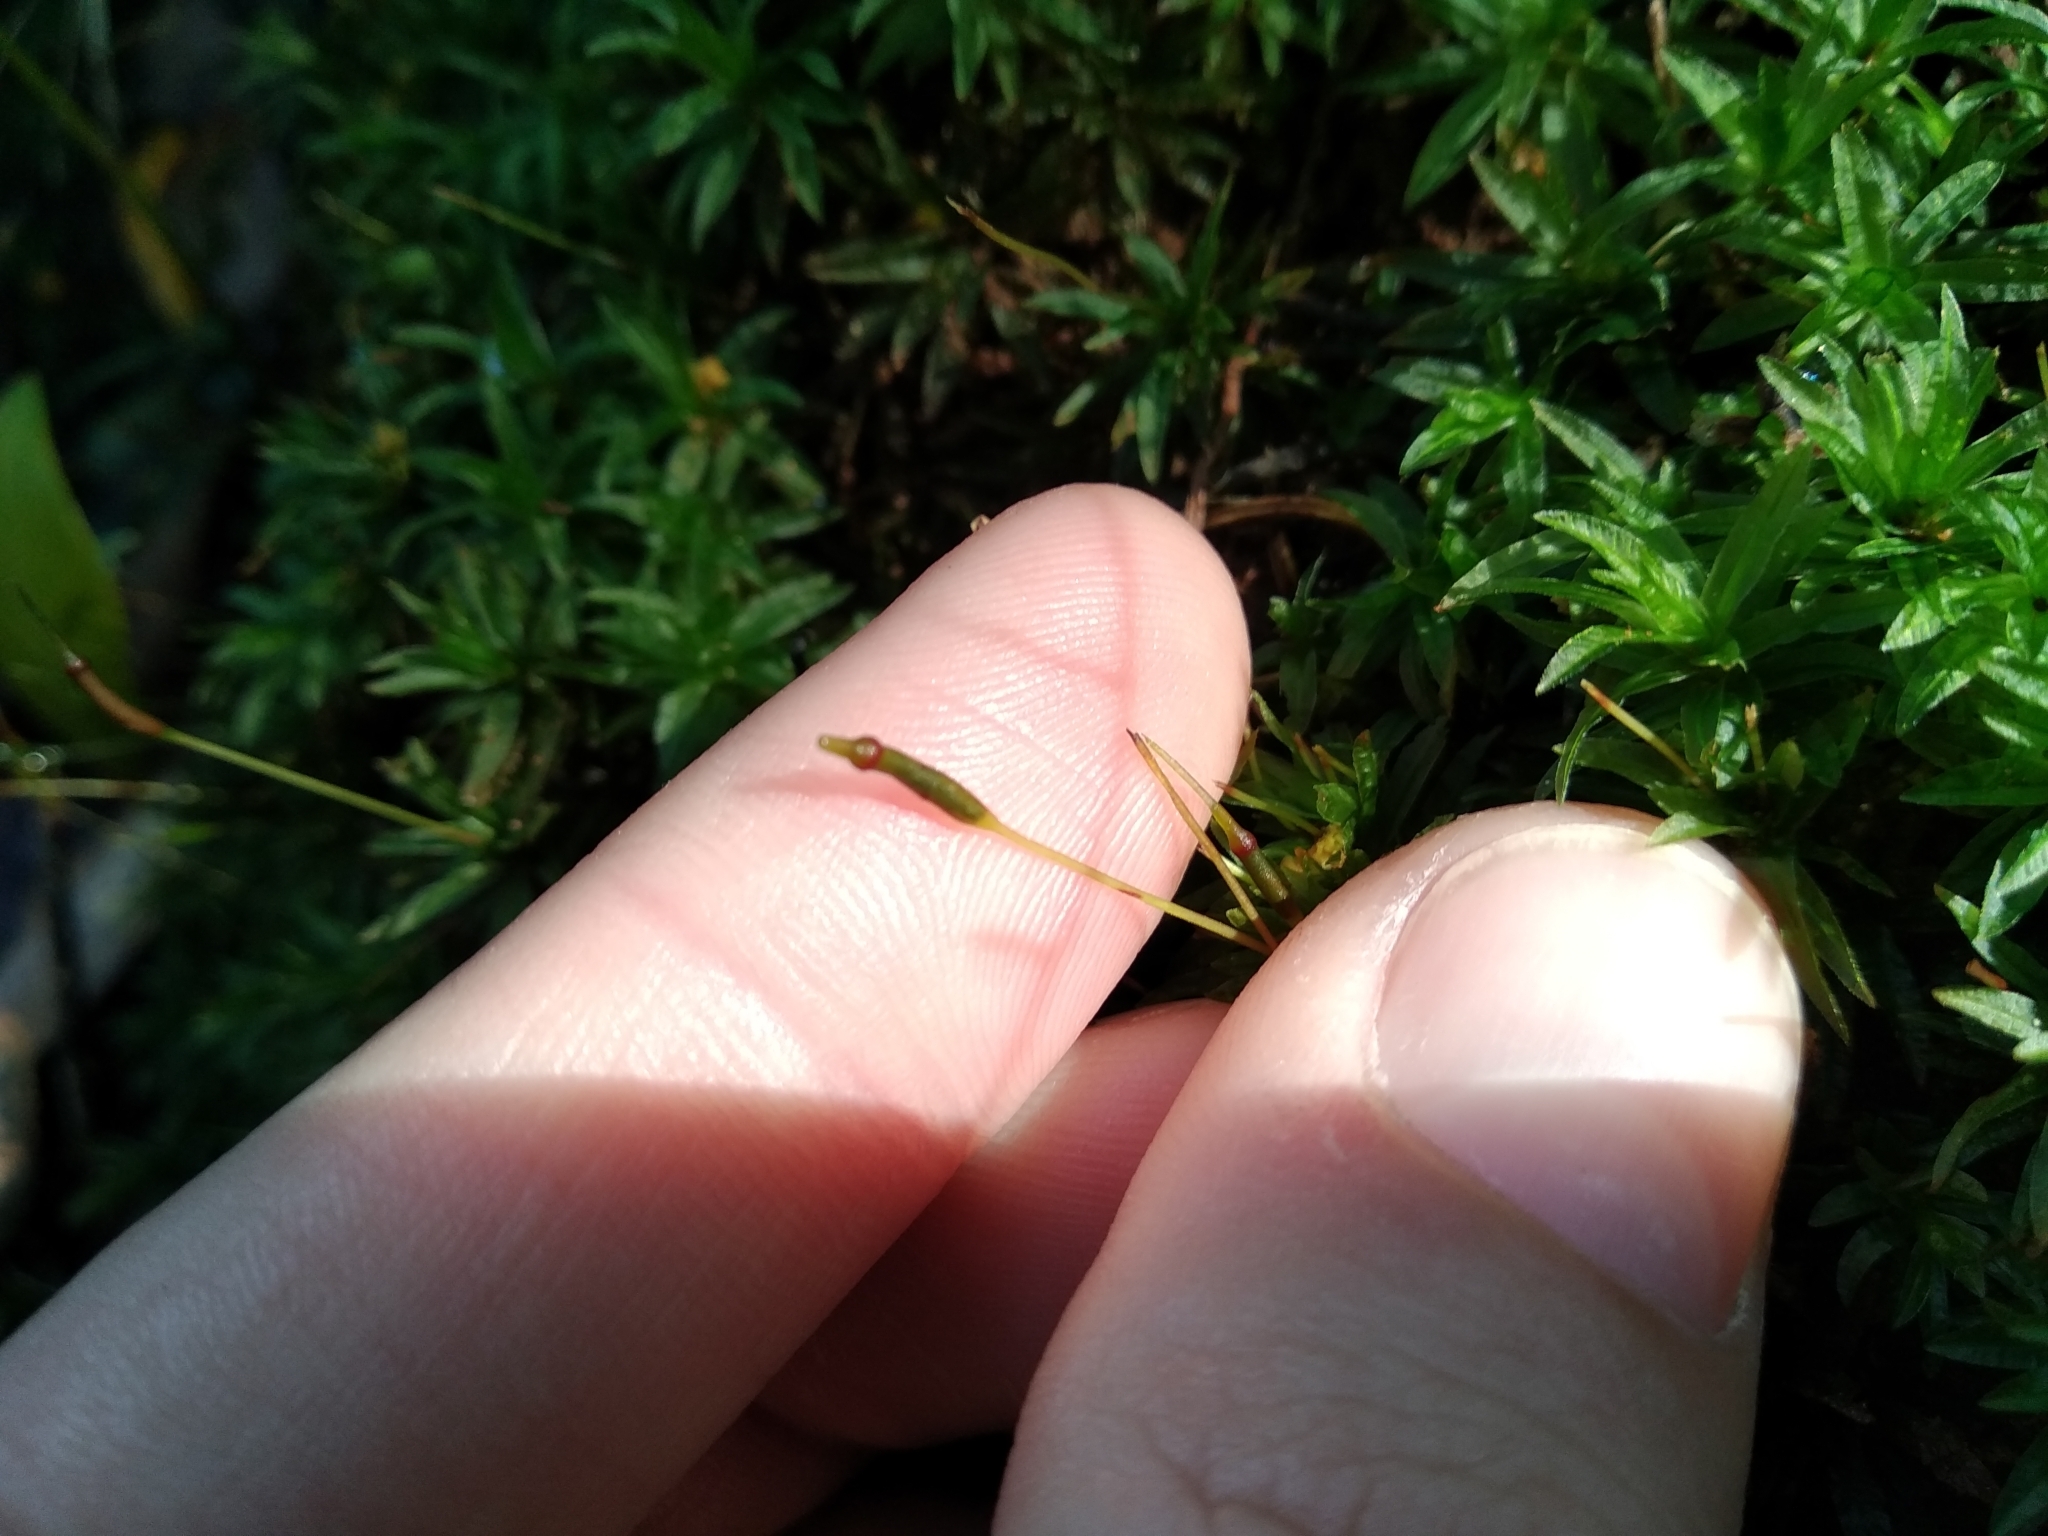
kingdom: Plantae
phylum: Bryophyta
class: Polytrichopsida
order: Polytrichales
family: Polytrichaceae
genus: Atrichum
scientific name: Atrichum androgynum
